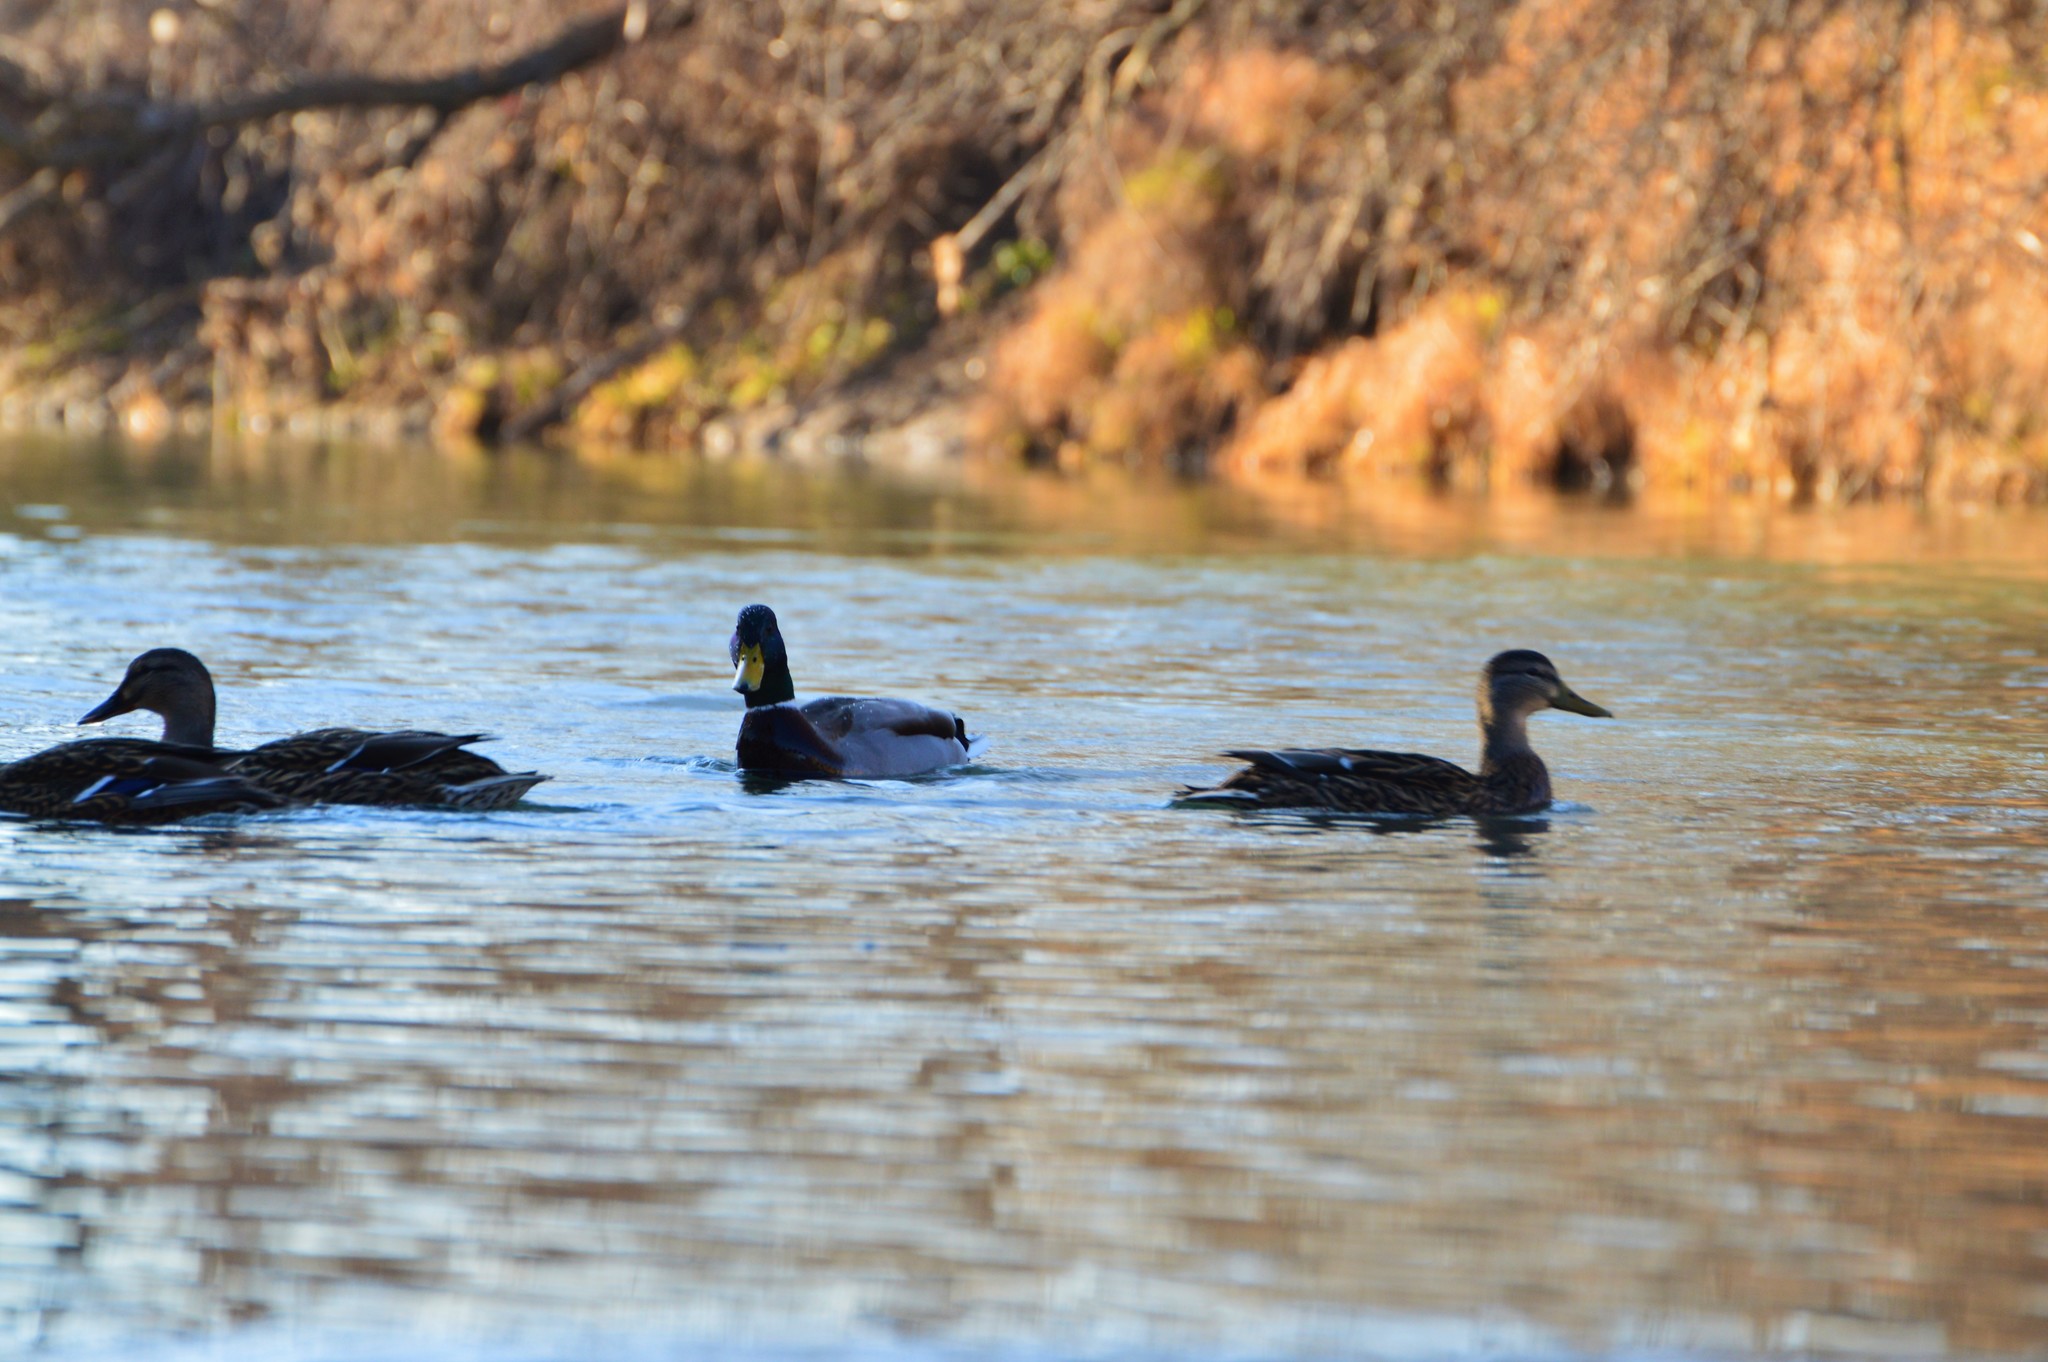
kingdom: Animalia
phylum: Chordata
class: Aves
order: Anseriformes
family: Anatidae
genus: Anas
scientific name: Anas platyrhynchos
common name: Mallard
